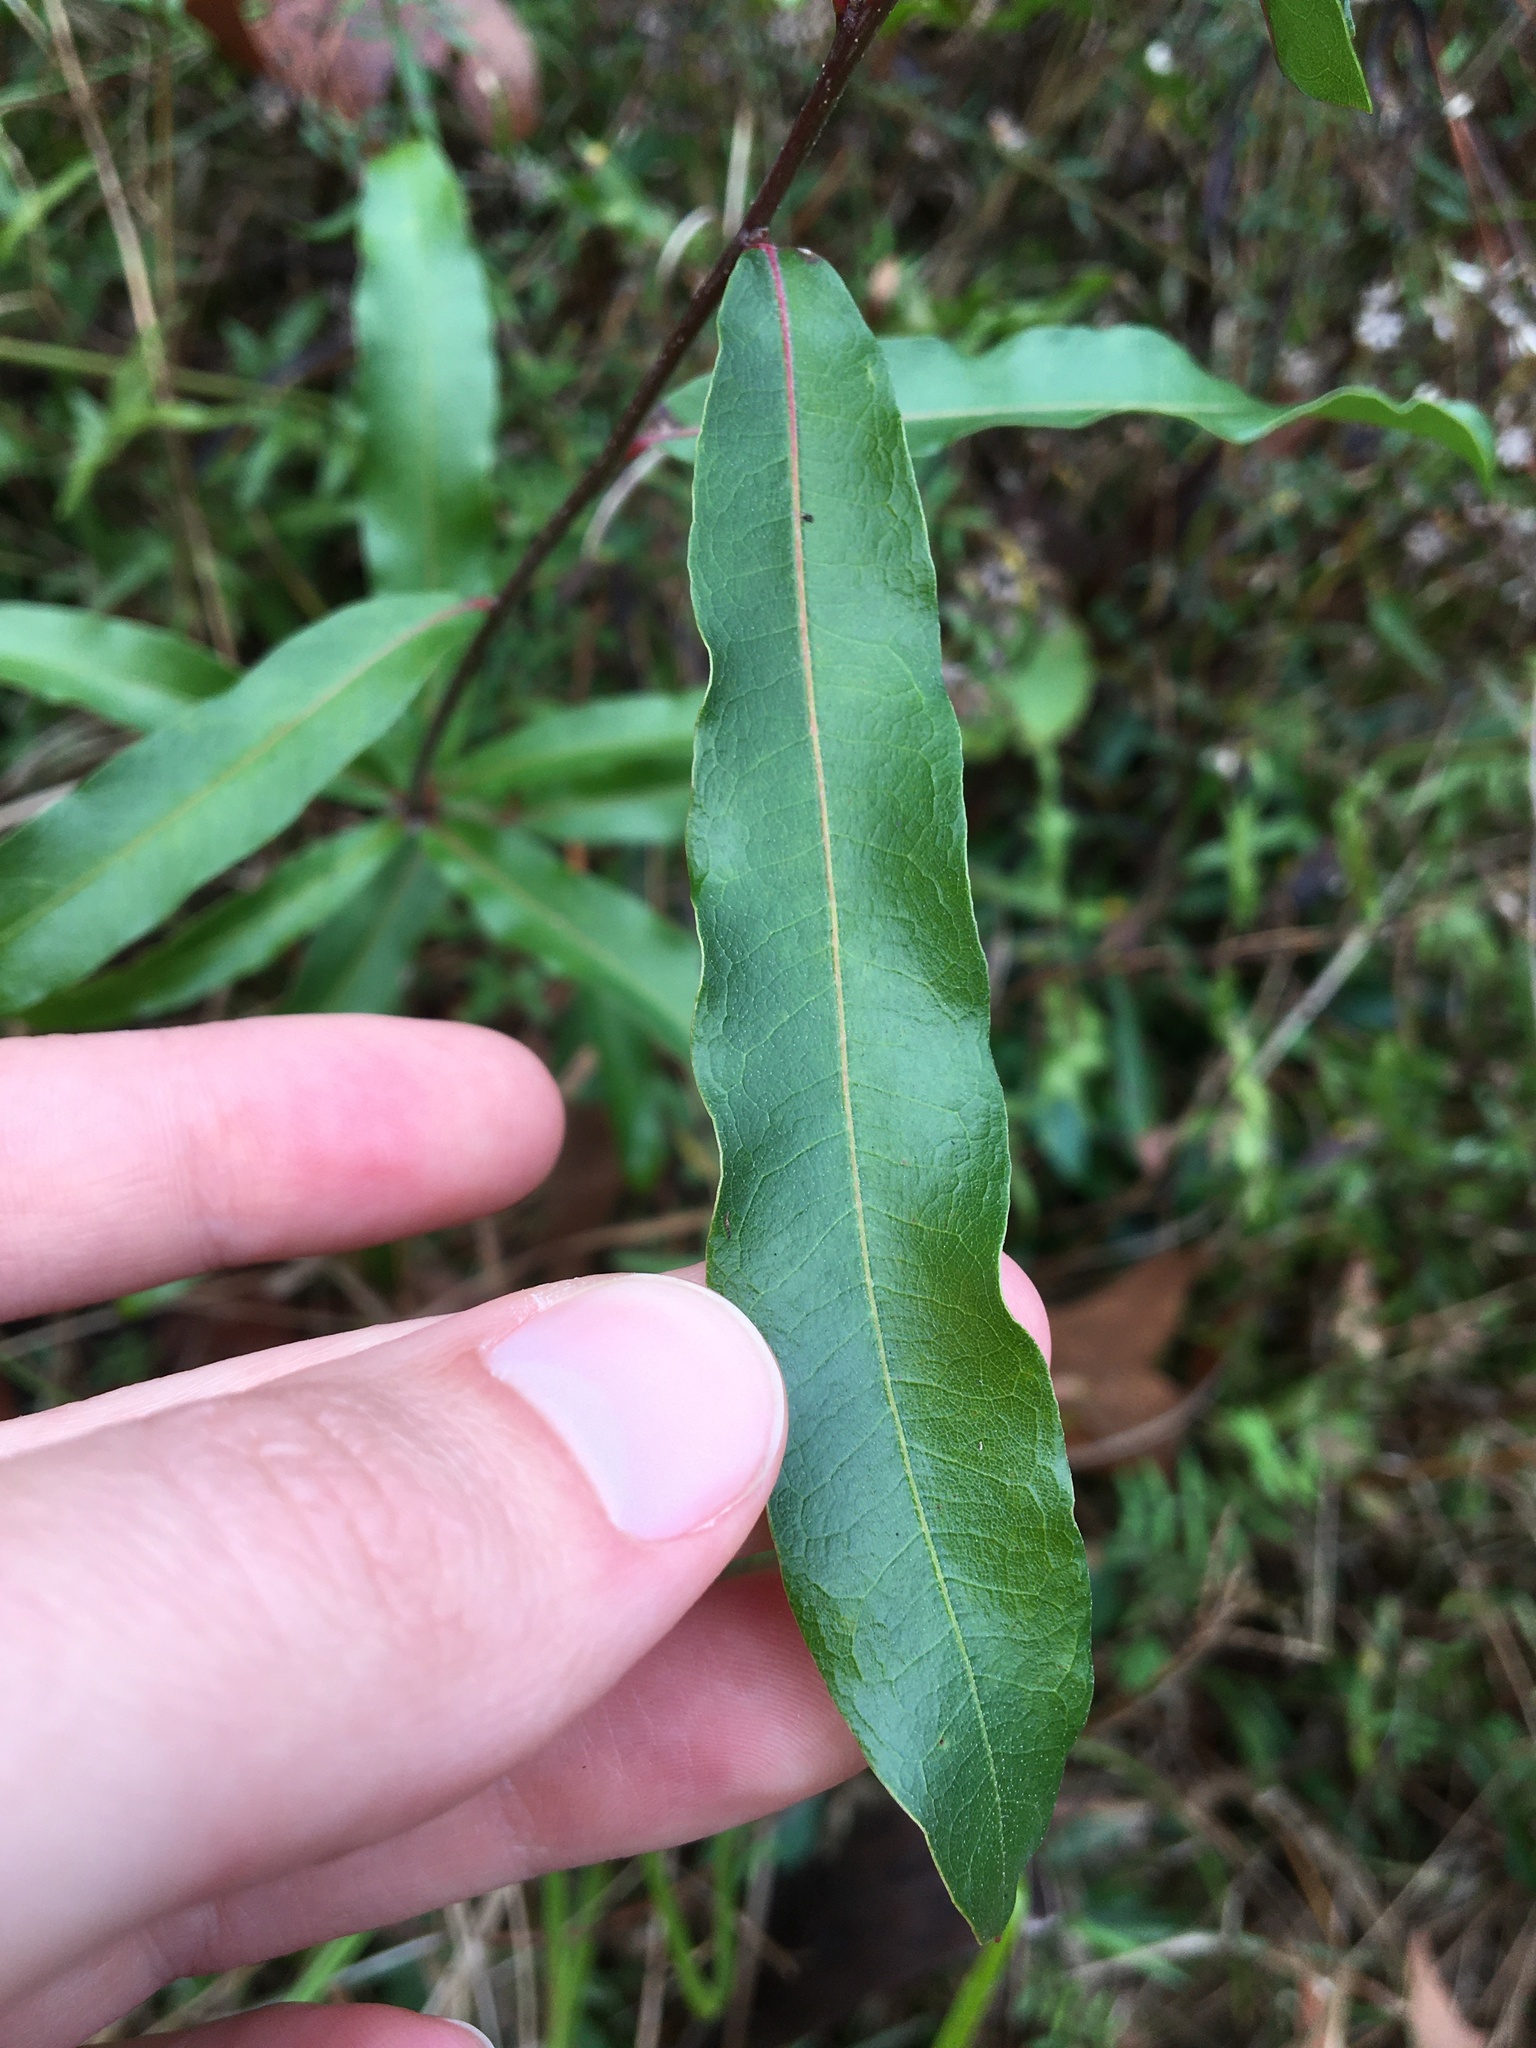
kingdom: Plantae
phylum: Tracheophyta
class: Magnoliopsida
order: Fagales
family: Fagaceae
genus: Quercus
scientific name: Quercus phellos
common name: Willow oak
